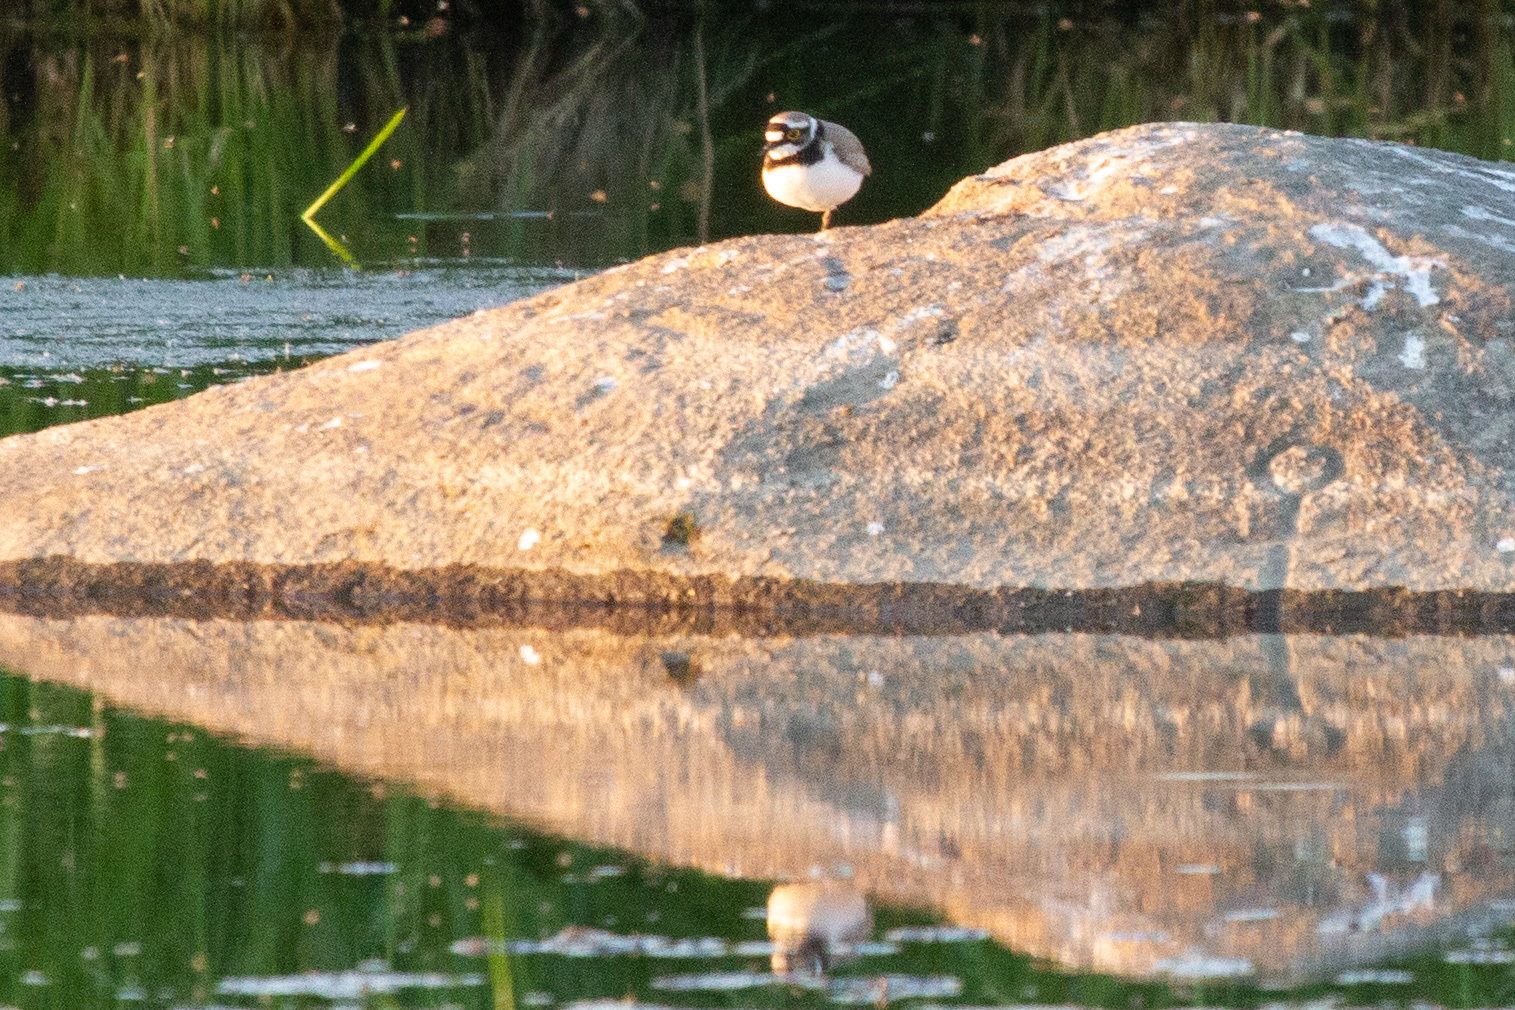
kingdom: Animalia
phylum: Chordata
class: Aves
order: Charadriiformes
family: Charadriidae
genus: Charadrius
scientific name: Charadrius dubius
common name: Little ringed plover
